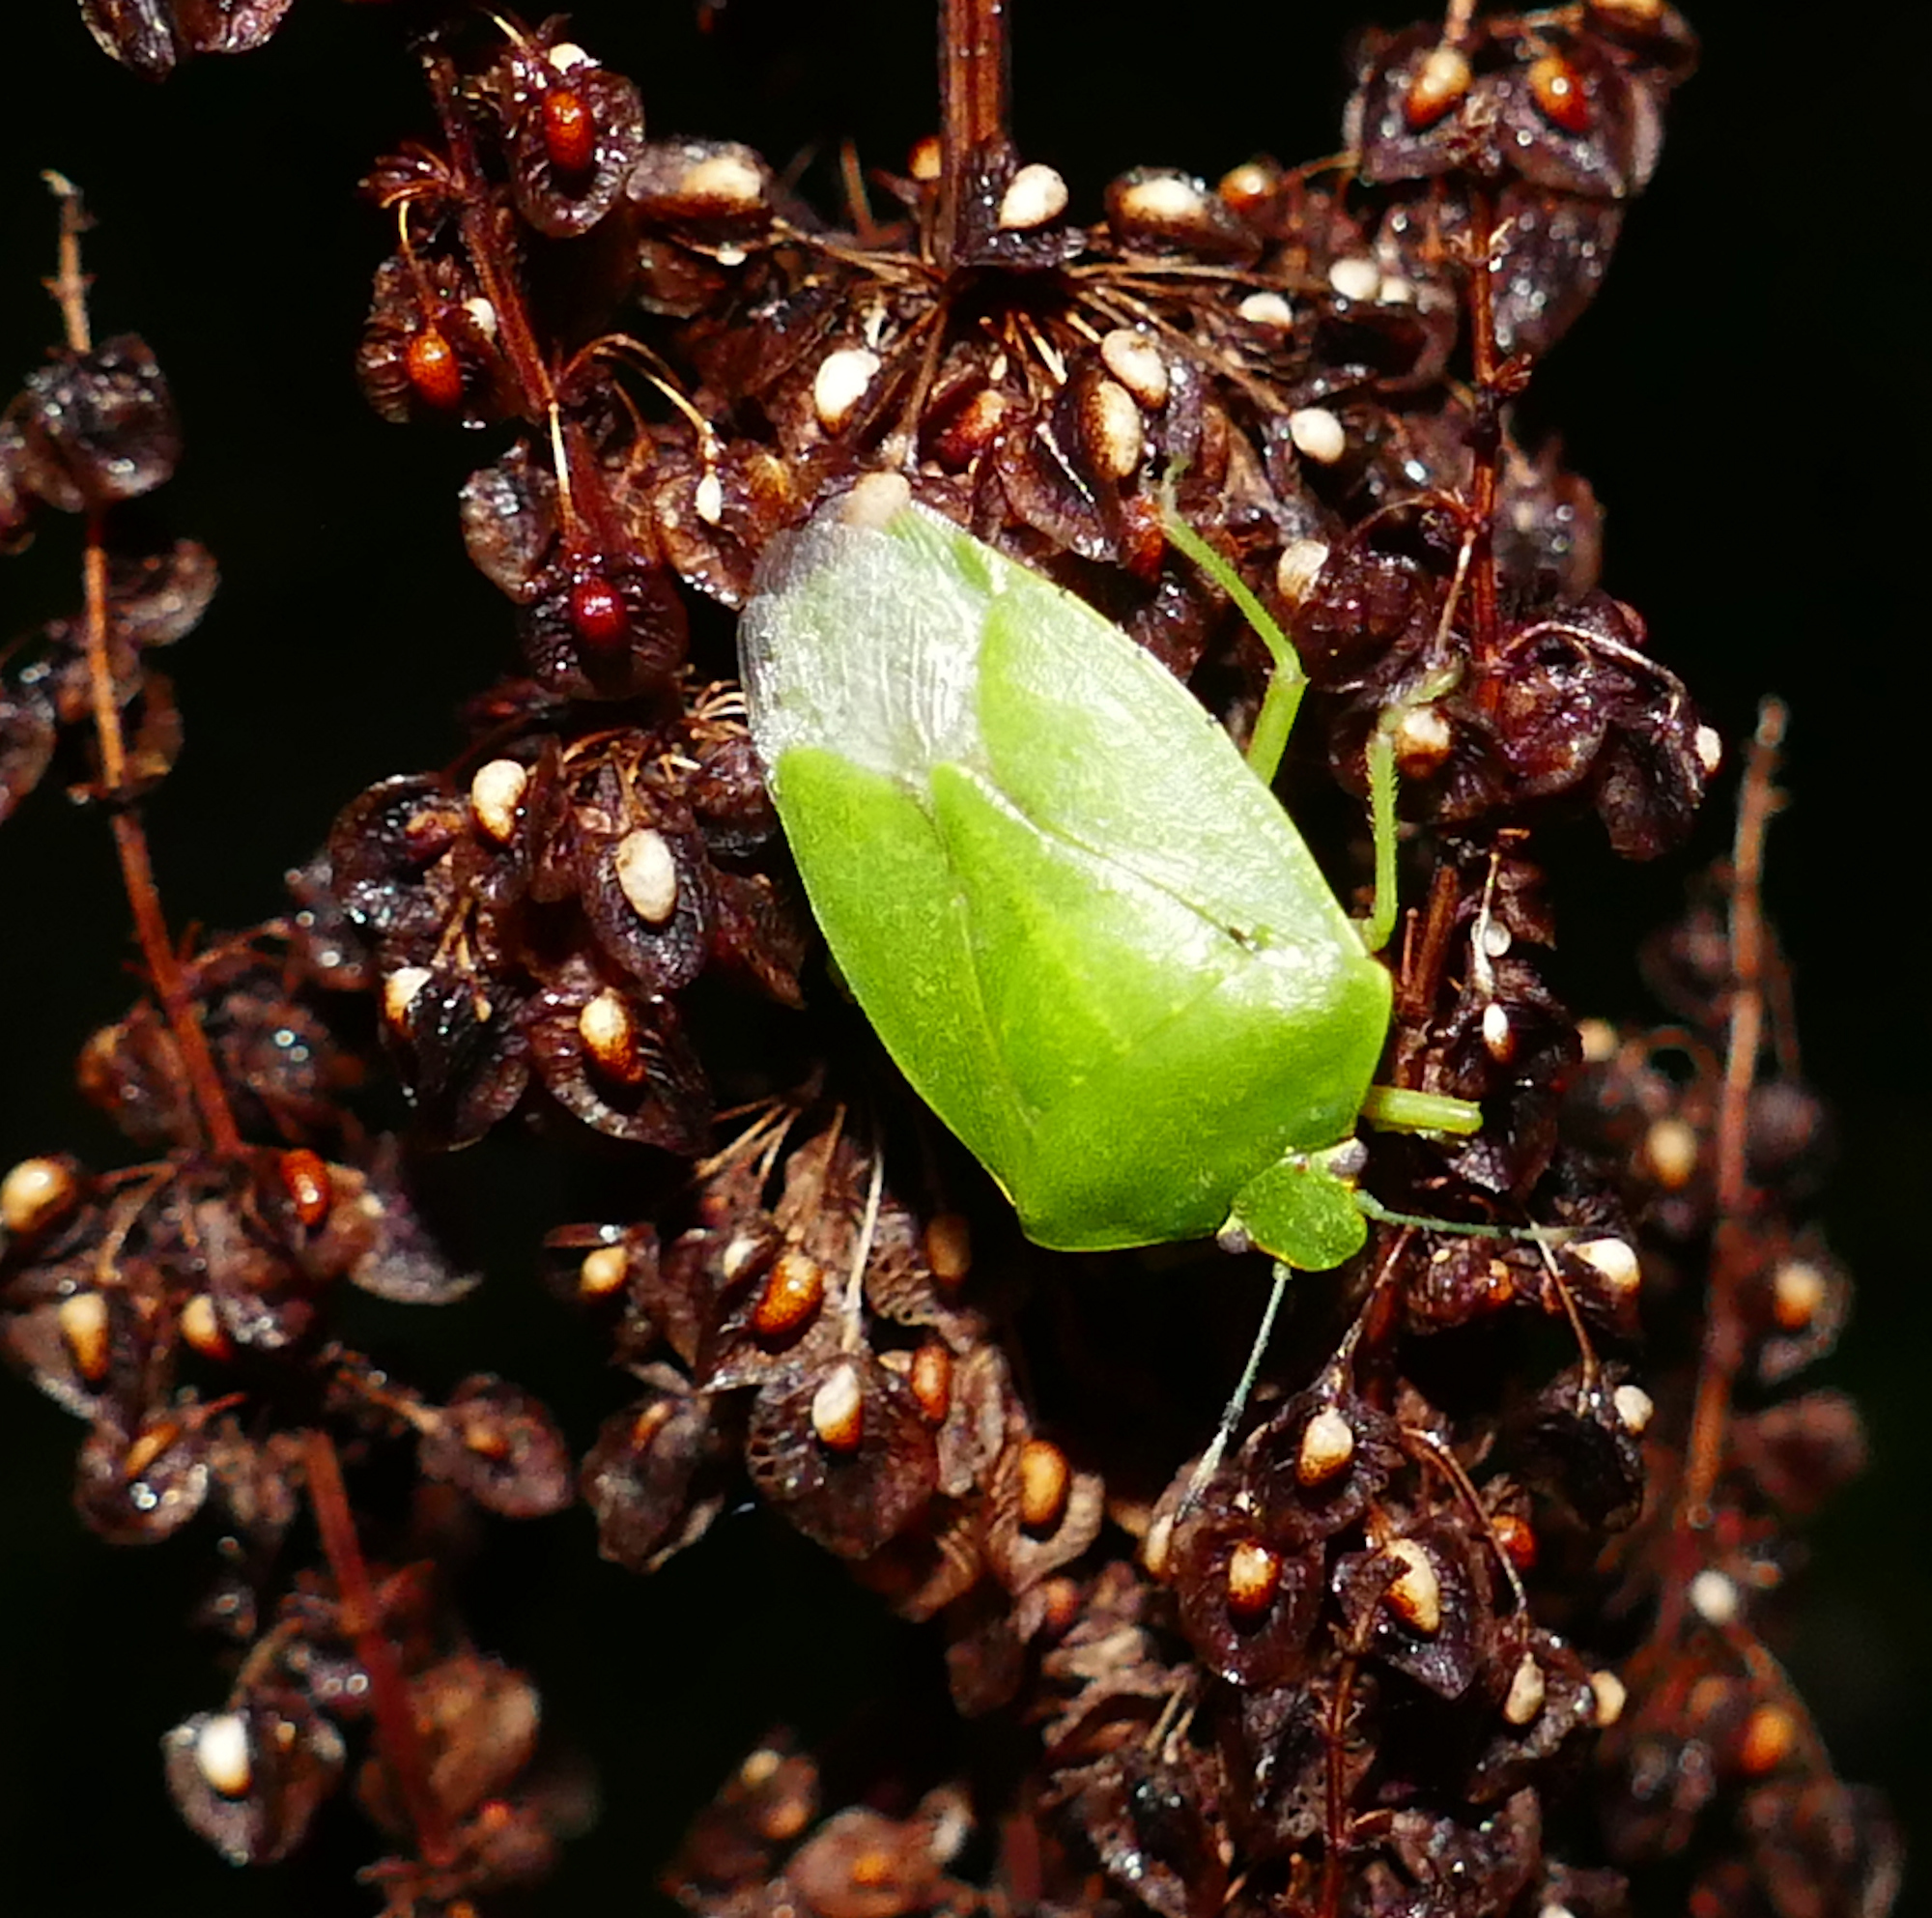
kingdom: Animalia
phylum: Arthropoda
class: Insecta
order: Hemiptera
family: Pentatomidae
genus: Chinavia
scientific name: Chinavia hilaris
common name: Green stink bug
